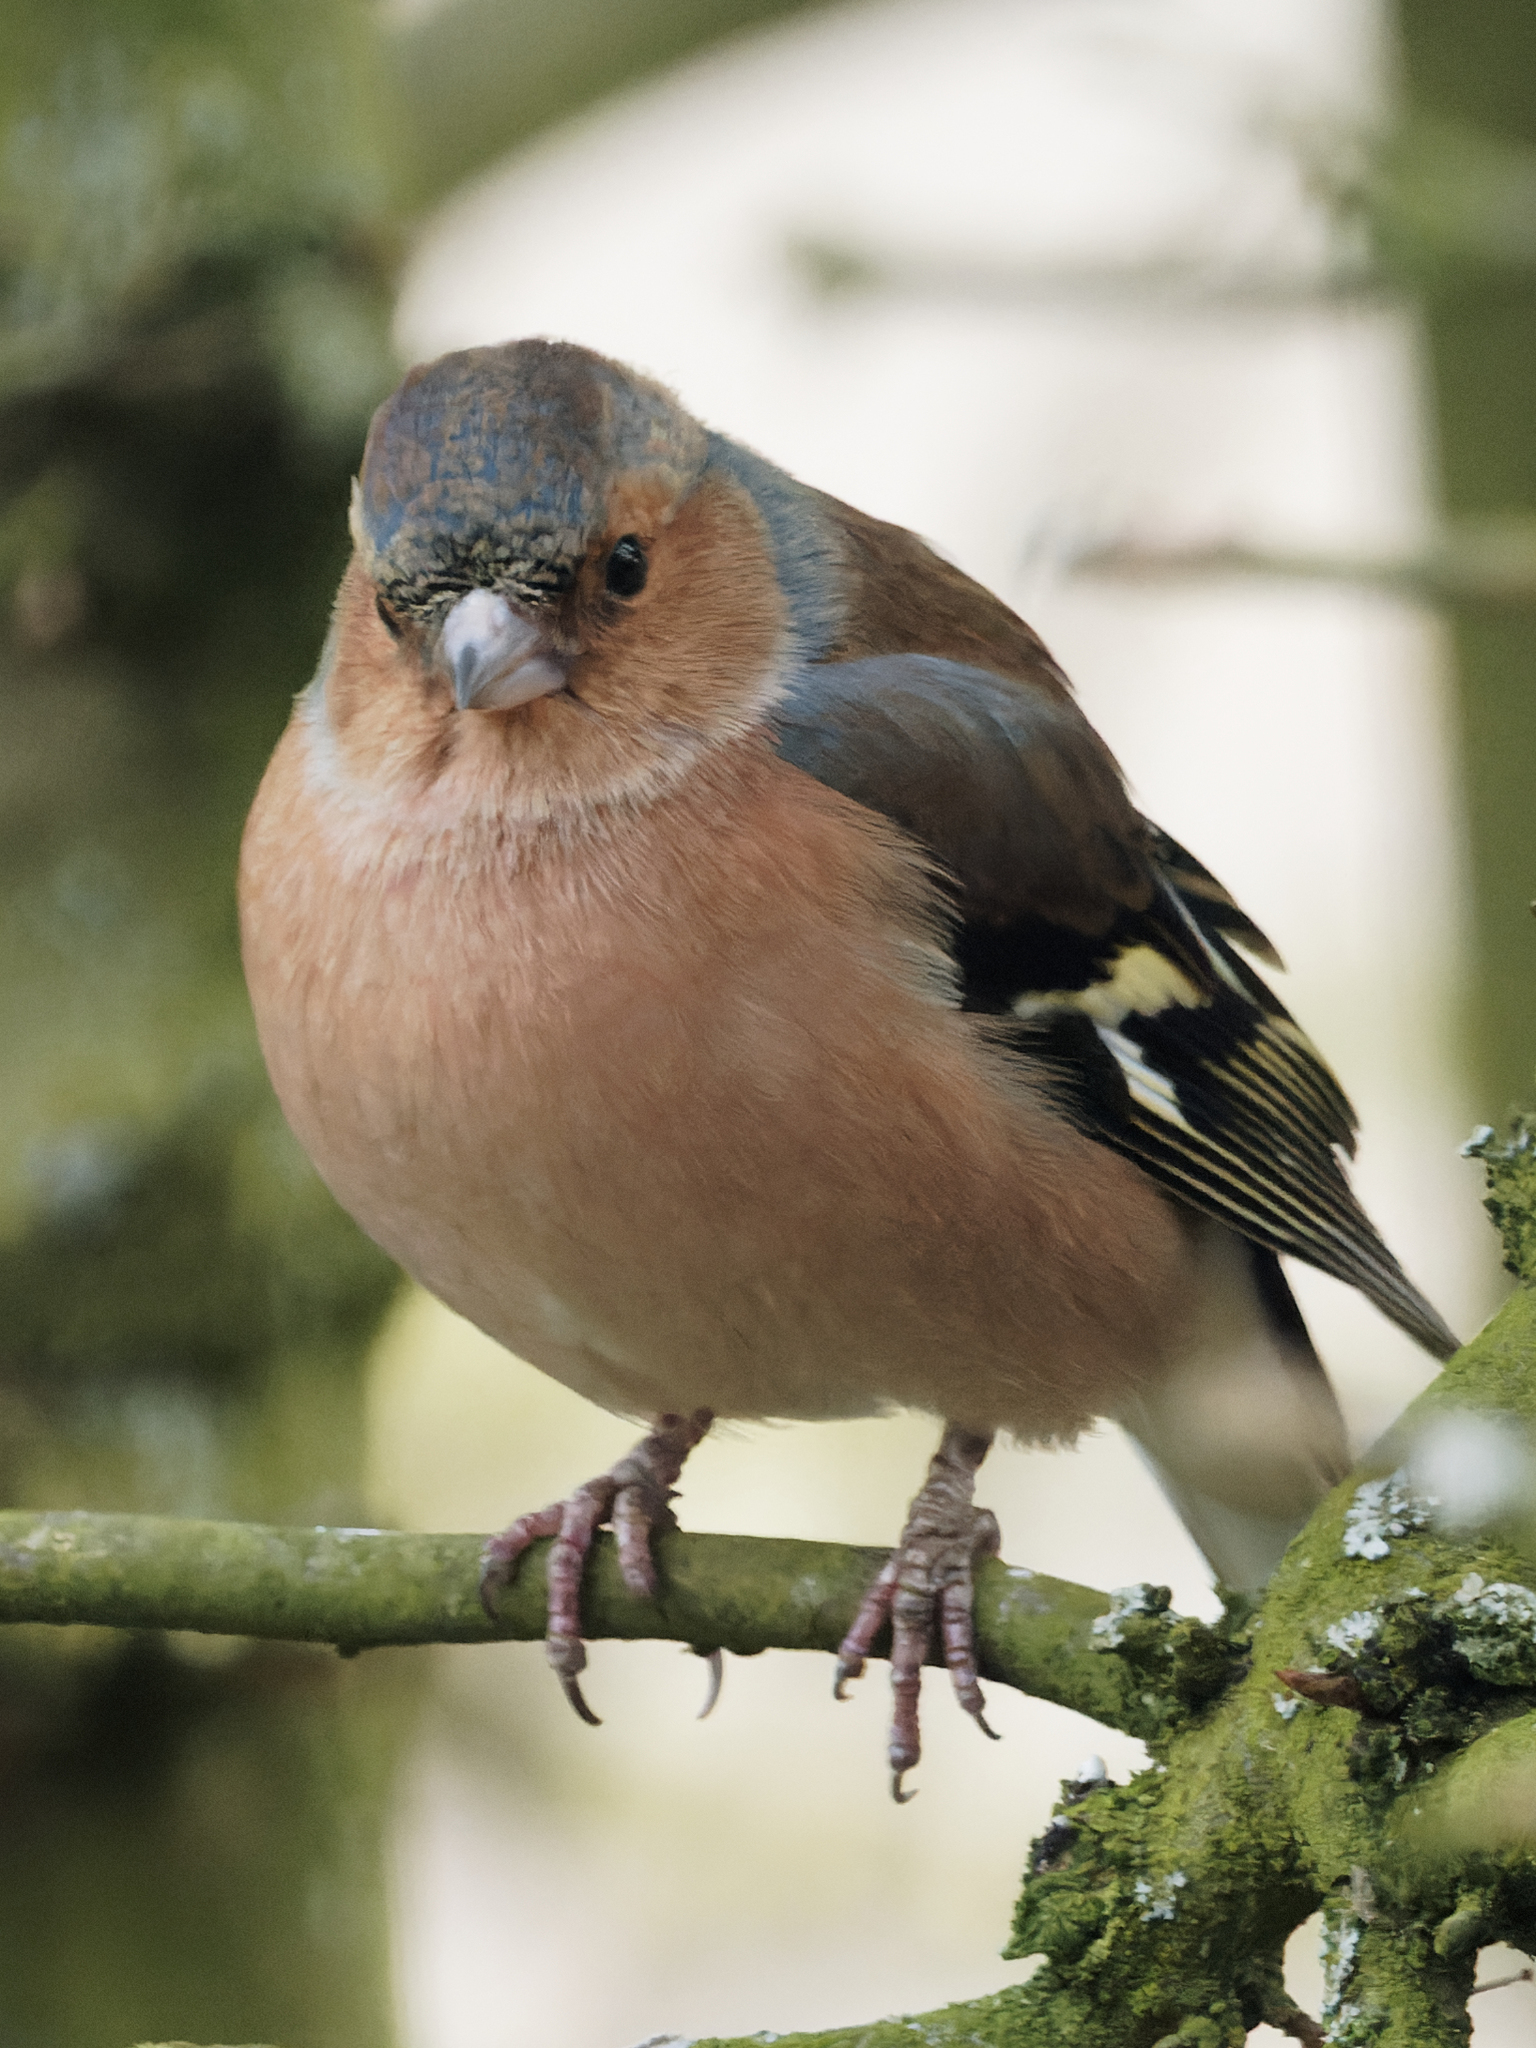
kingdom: Animalia
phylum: Chordata
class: Aves
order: Passeriformes
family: Fringillidae
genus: Fringilla
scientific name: Fringilla coelebs
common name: Common chaffinch
